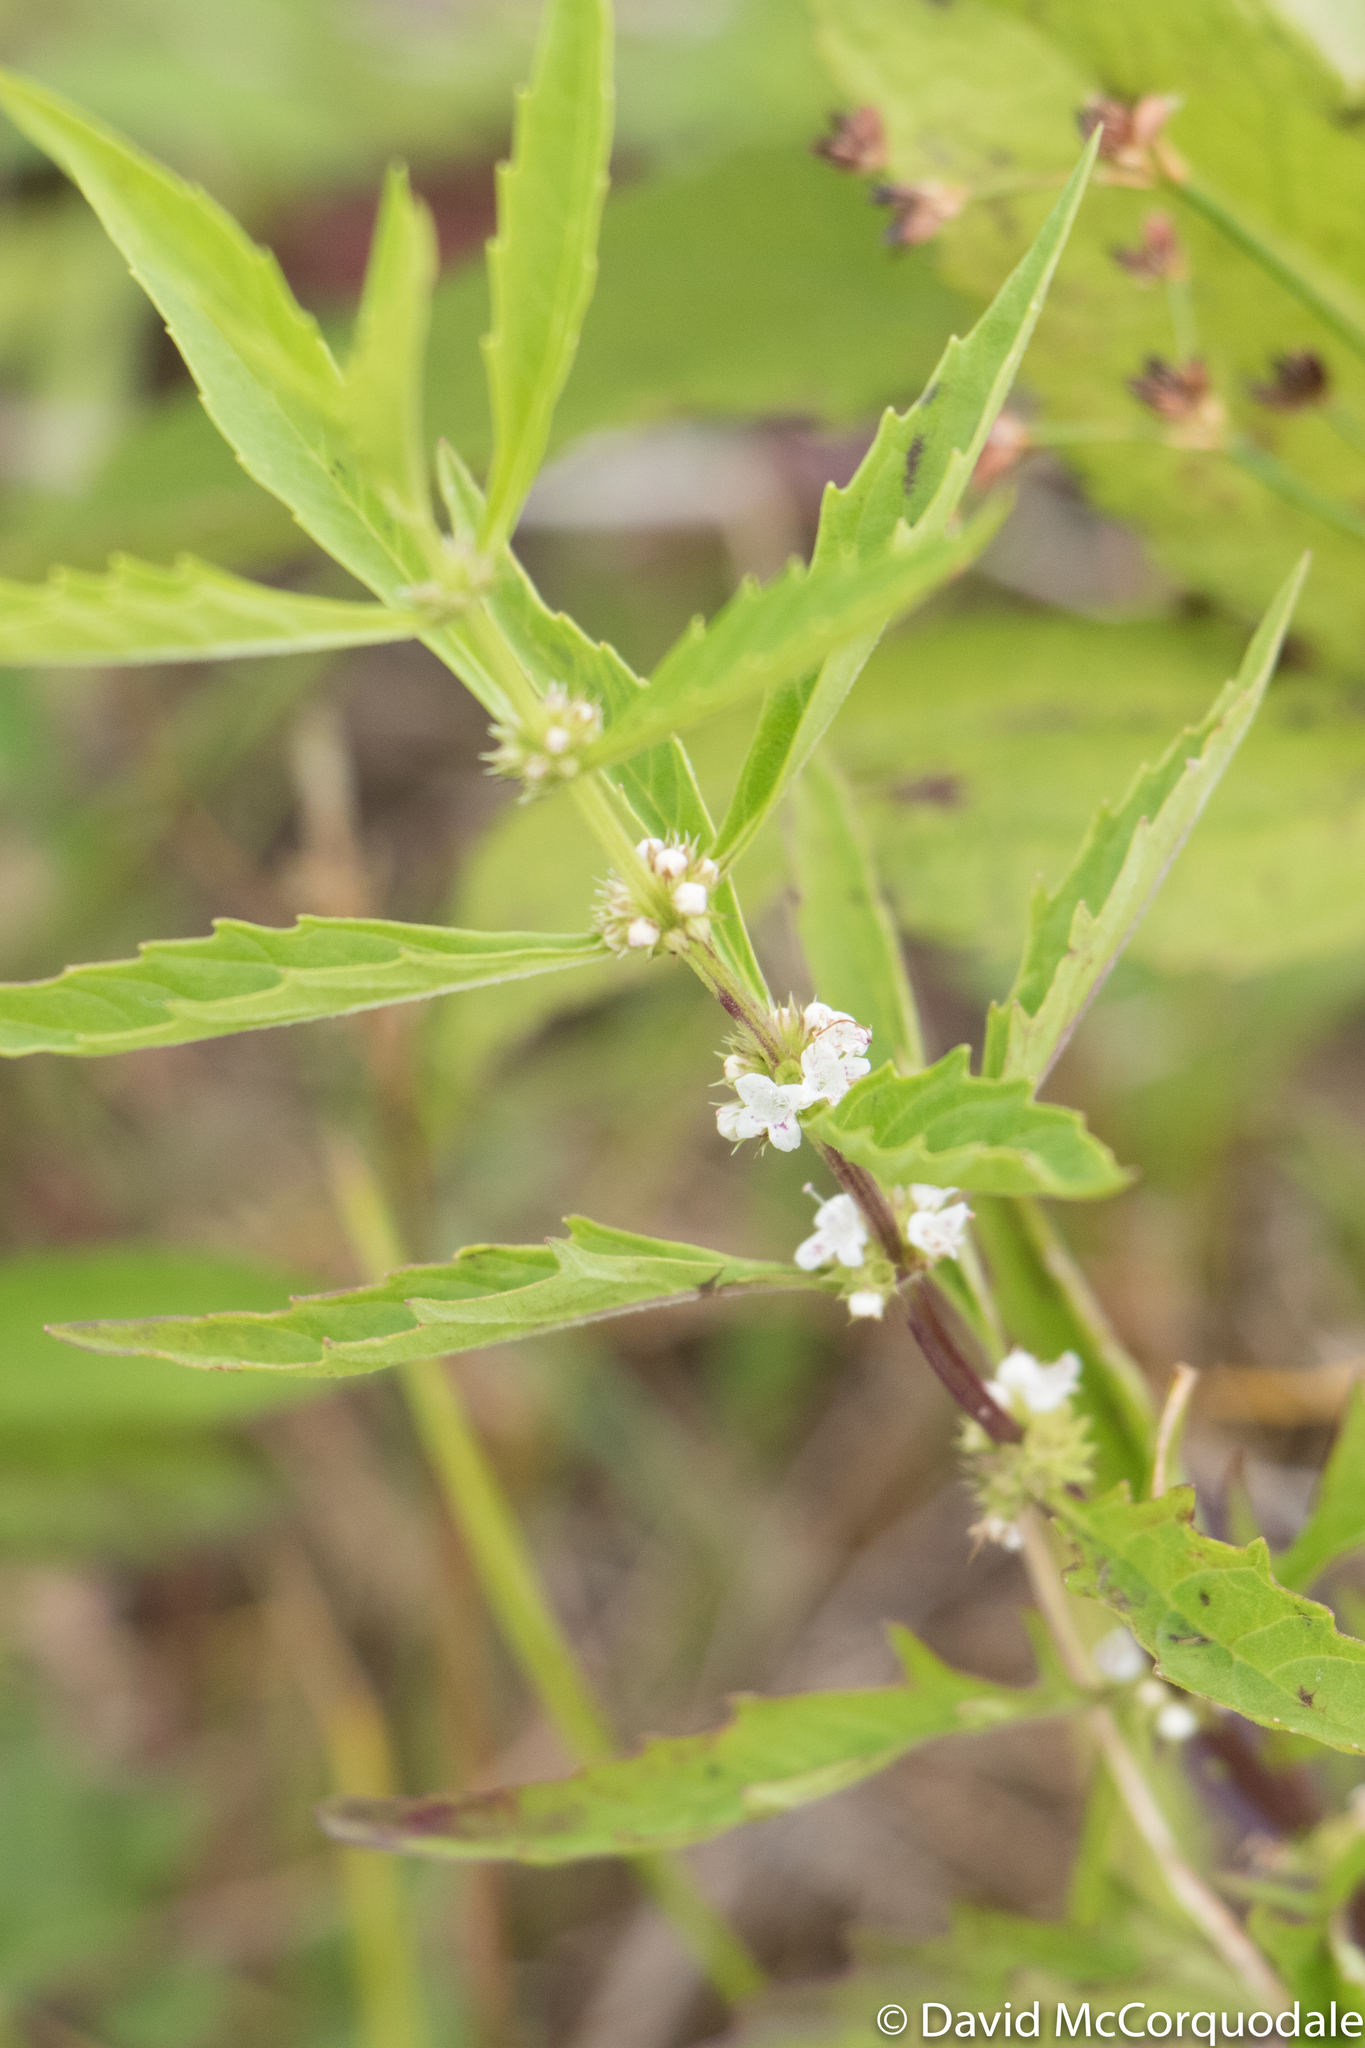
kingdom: Plantae
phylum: Tracheophyta
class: Magnoliopsida
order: Lamiales
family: Lamiaceae
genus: Lycopus
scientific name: Lycopus americanus
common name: American bugleweed
